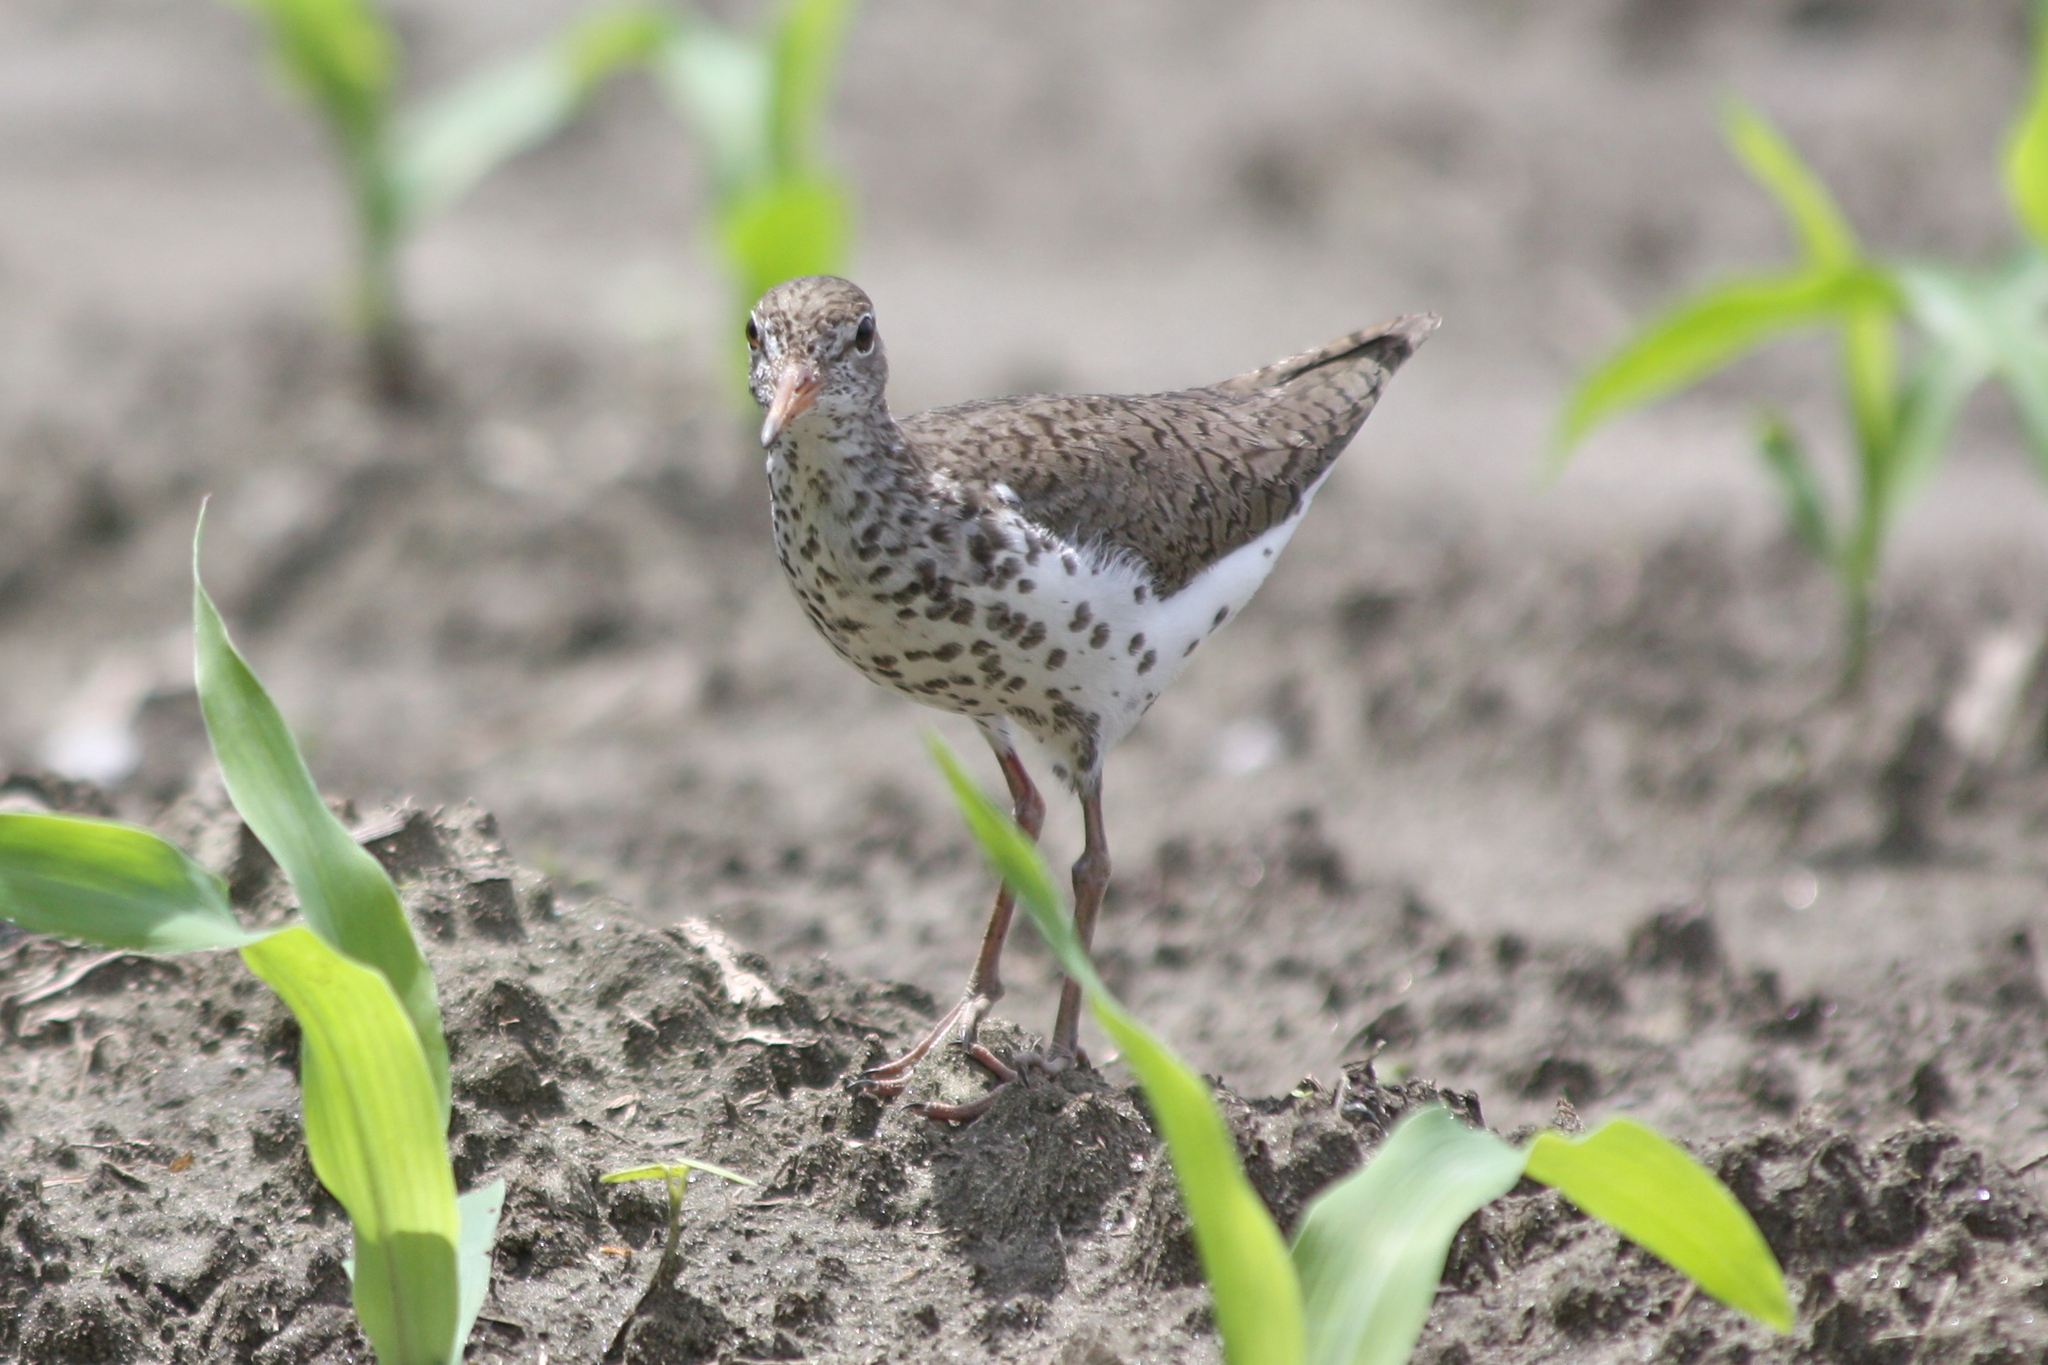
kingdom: Animalia
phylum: Chordata
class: Aves
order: Charadriiformes
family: Scolopacidae
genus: Actitis
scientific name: Actitis macularius
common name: Spotted sandpiper
